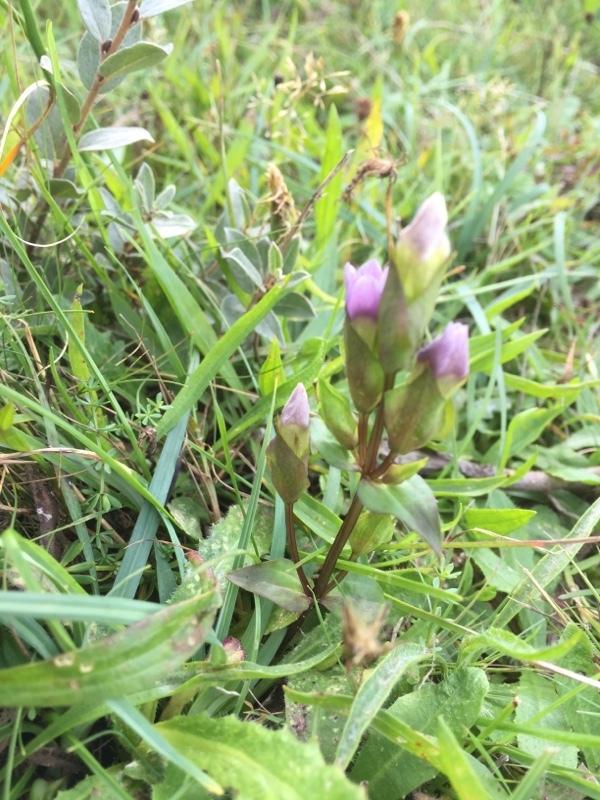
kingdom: Plantae
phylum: Tracheophyta
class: Magnoliopsida
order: Gentianales
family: Gentianaceae
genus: Gentianella
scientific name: Gentianella campestris
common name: Field gentian
